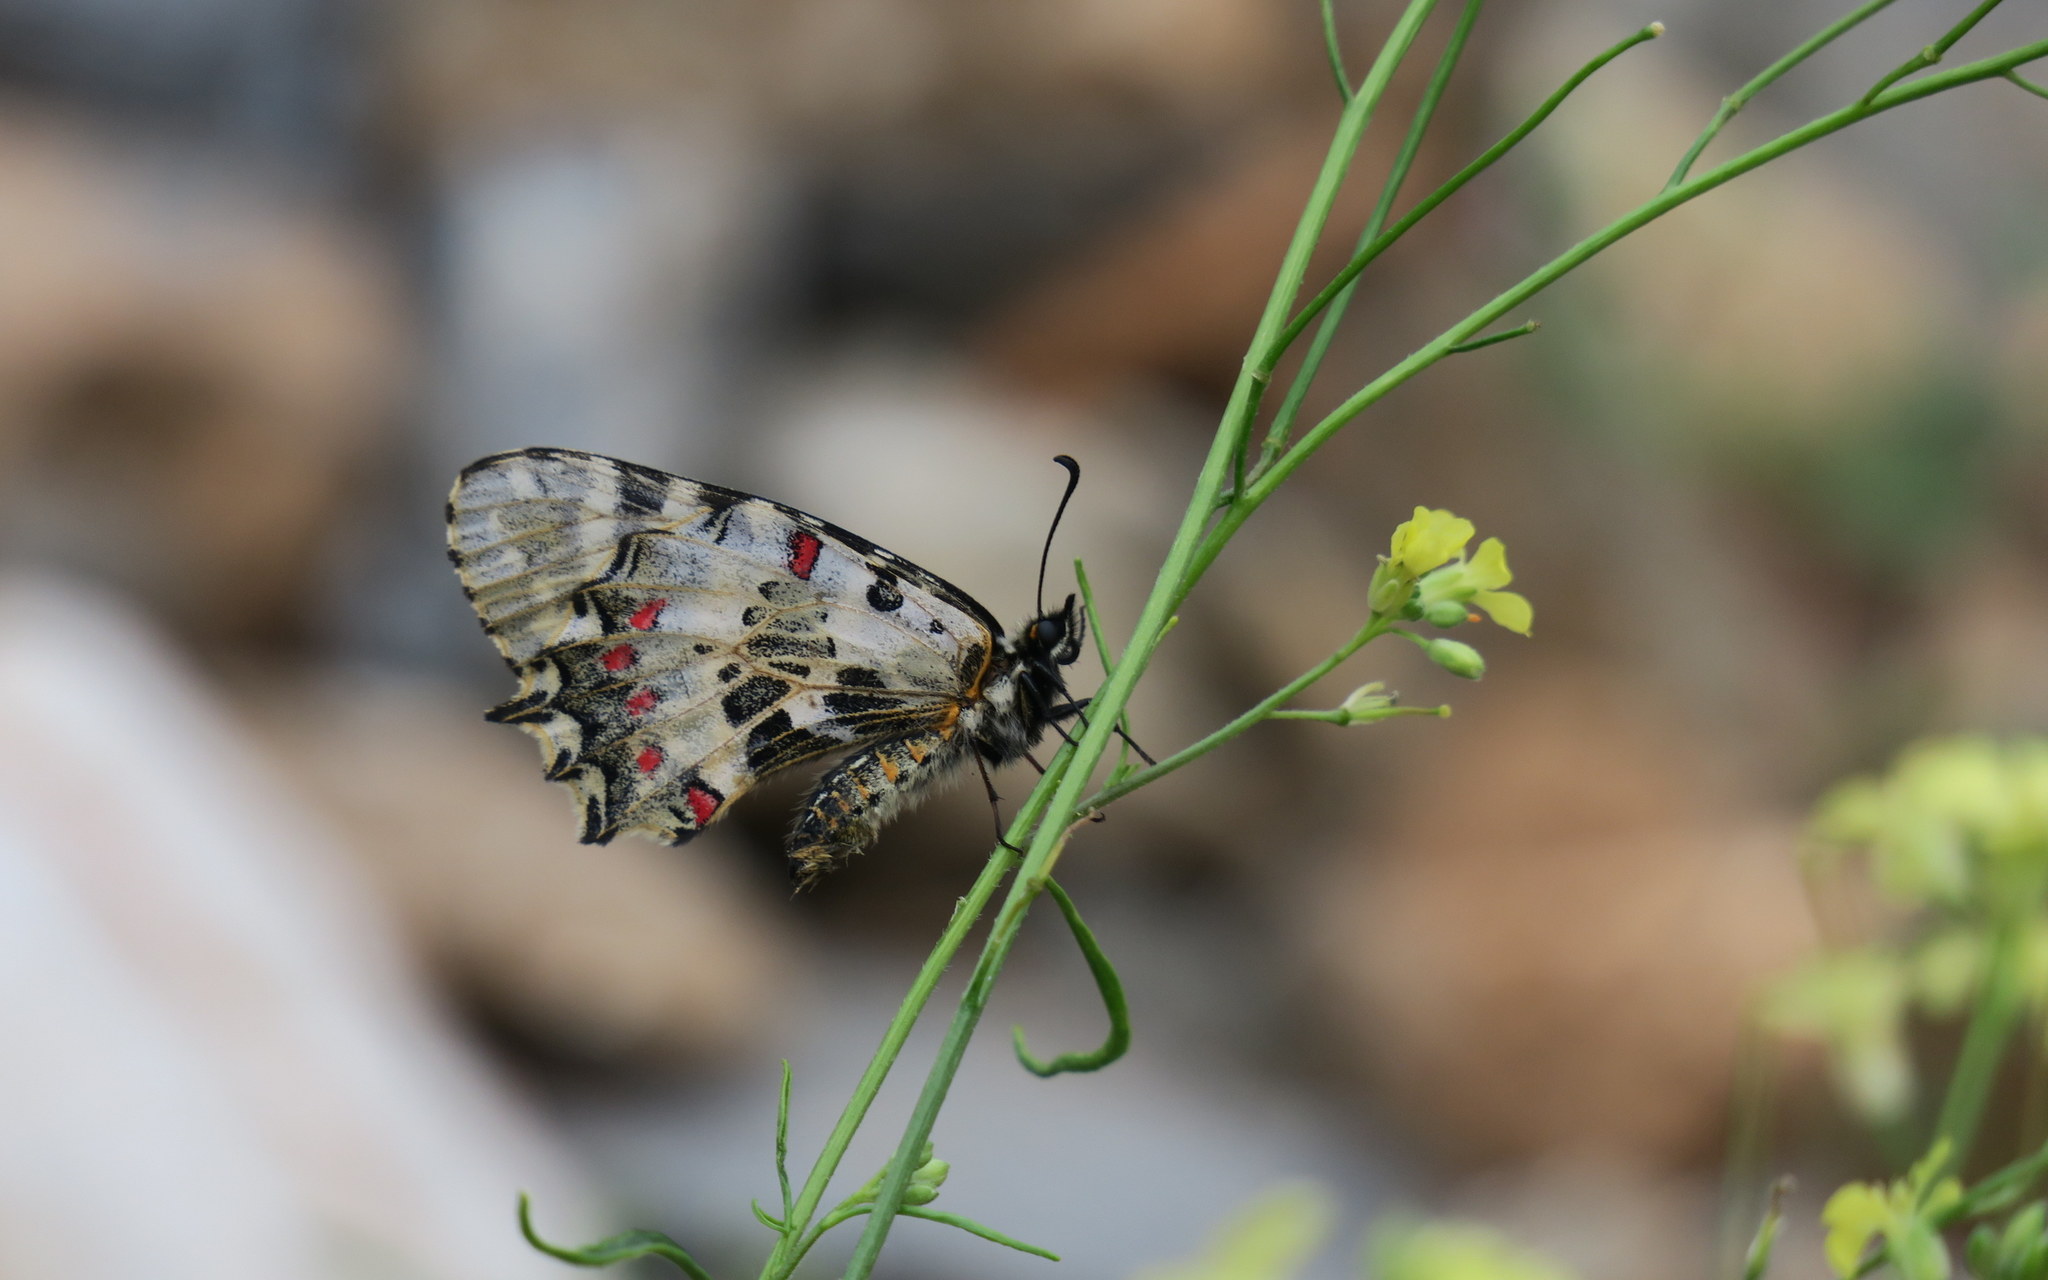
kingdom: Animalia
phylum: Arthropoda
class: Insecta
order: Lepidoptera
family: Papilionidae
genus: Zerynthia
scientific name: Zerynthia cerisy
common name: Eastern festoon
